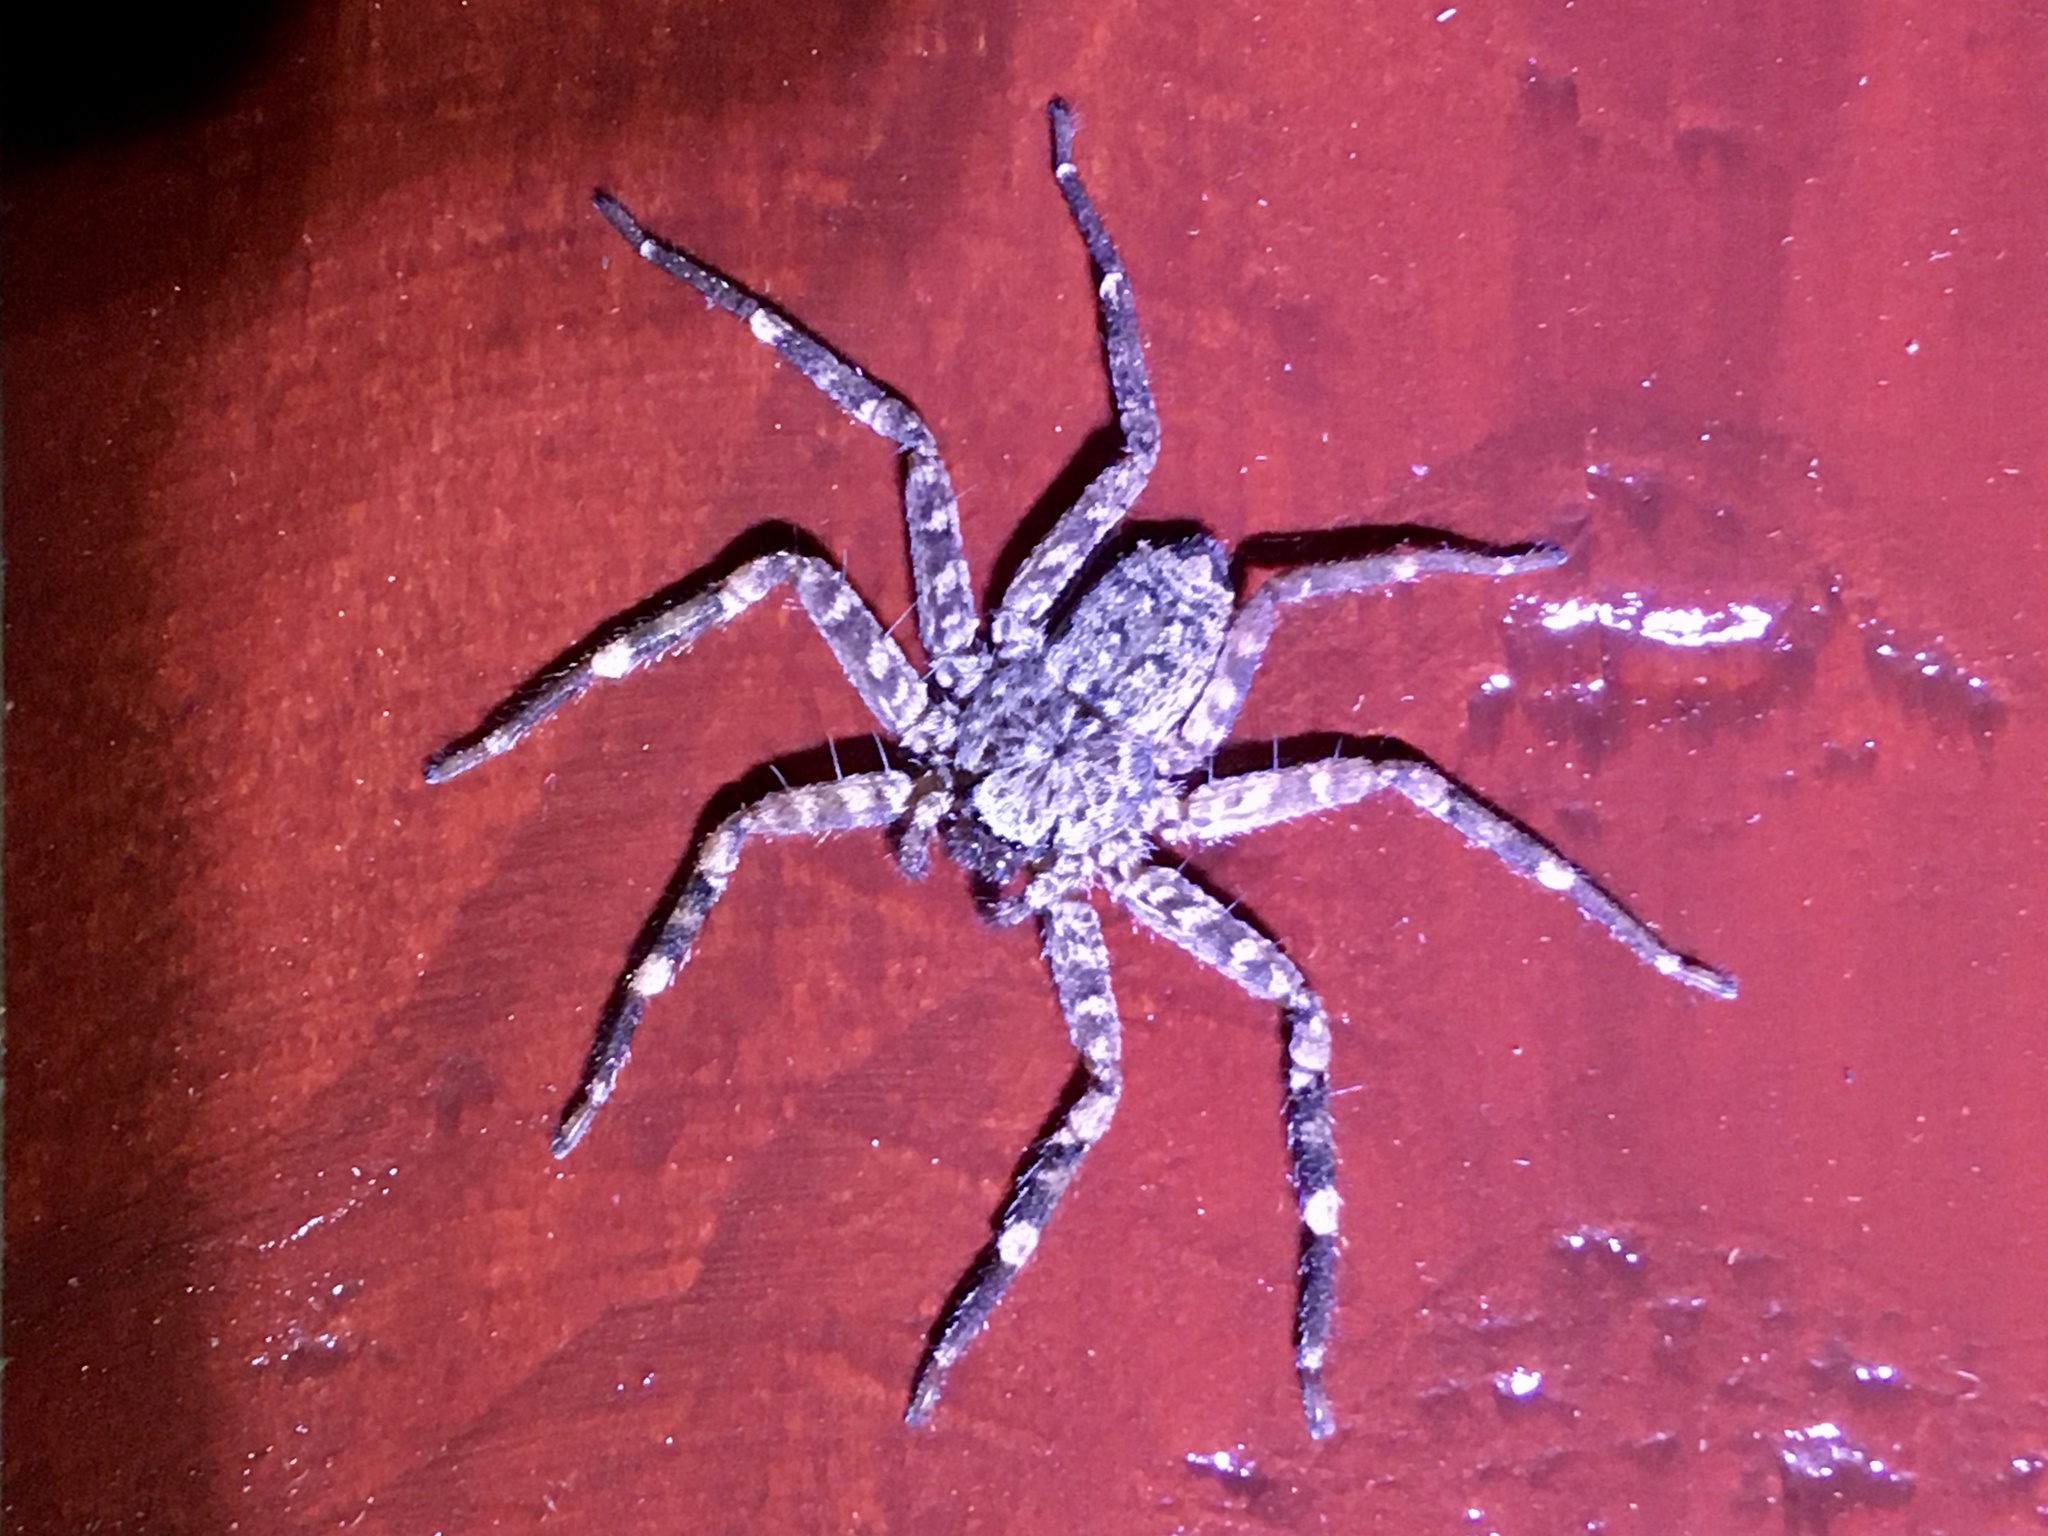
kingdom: Animalia
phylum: Arthropoda
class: Arachnida
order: Araneae
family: Selenopidae
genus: Selenops
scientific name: Selenops mexicanus
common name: Wall crab spiders
